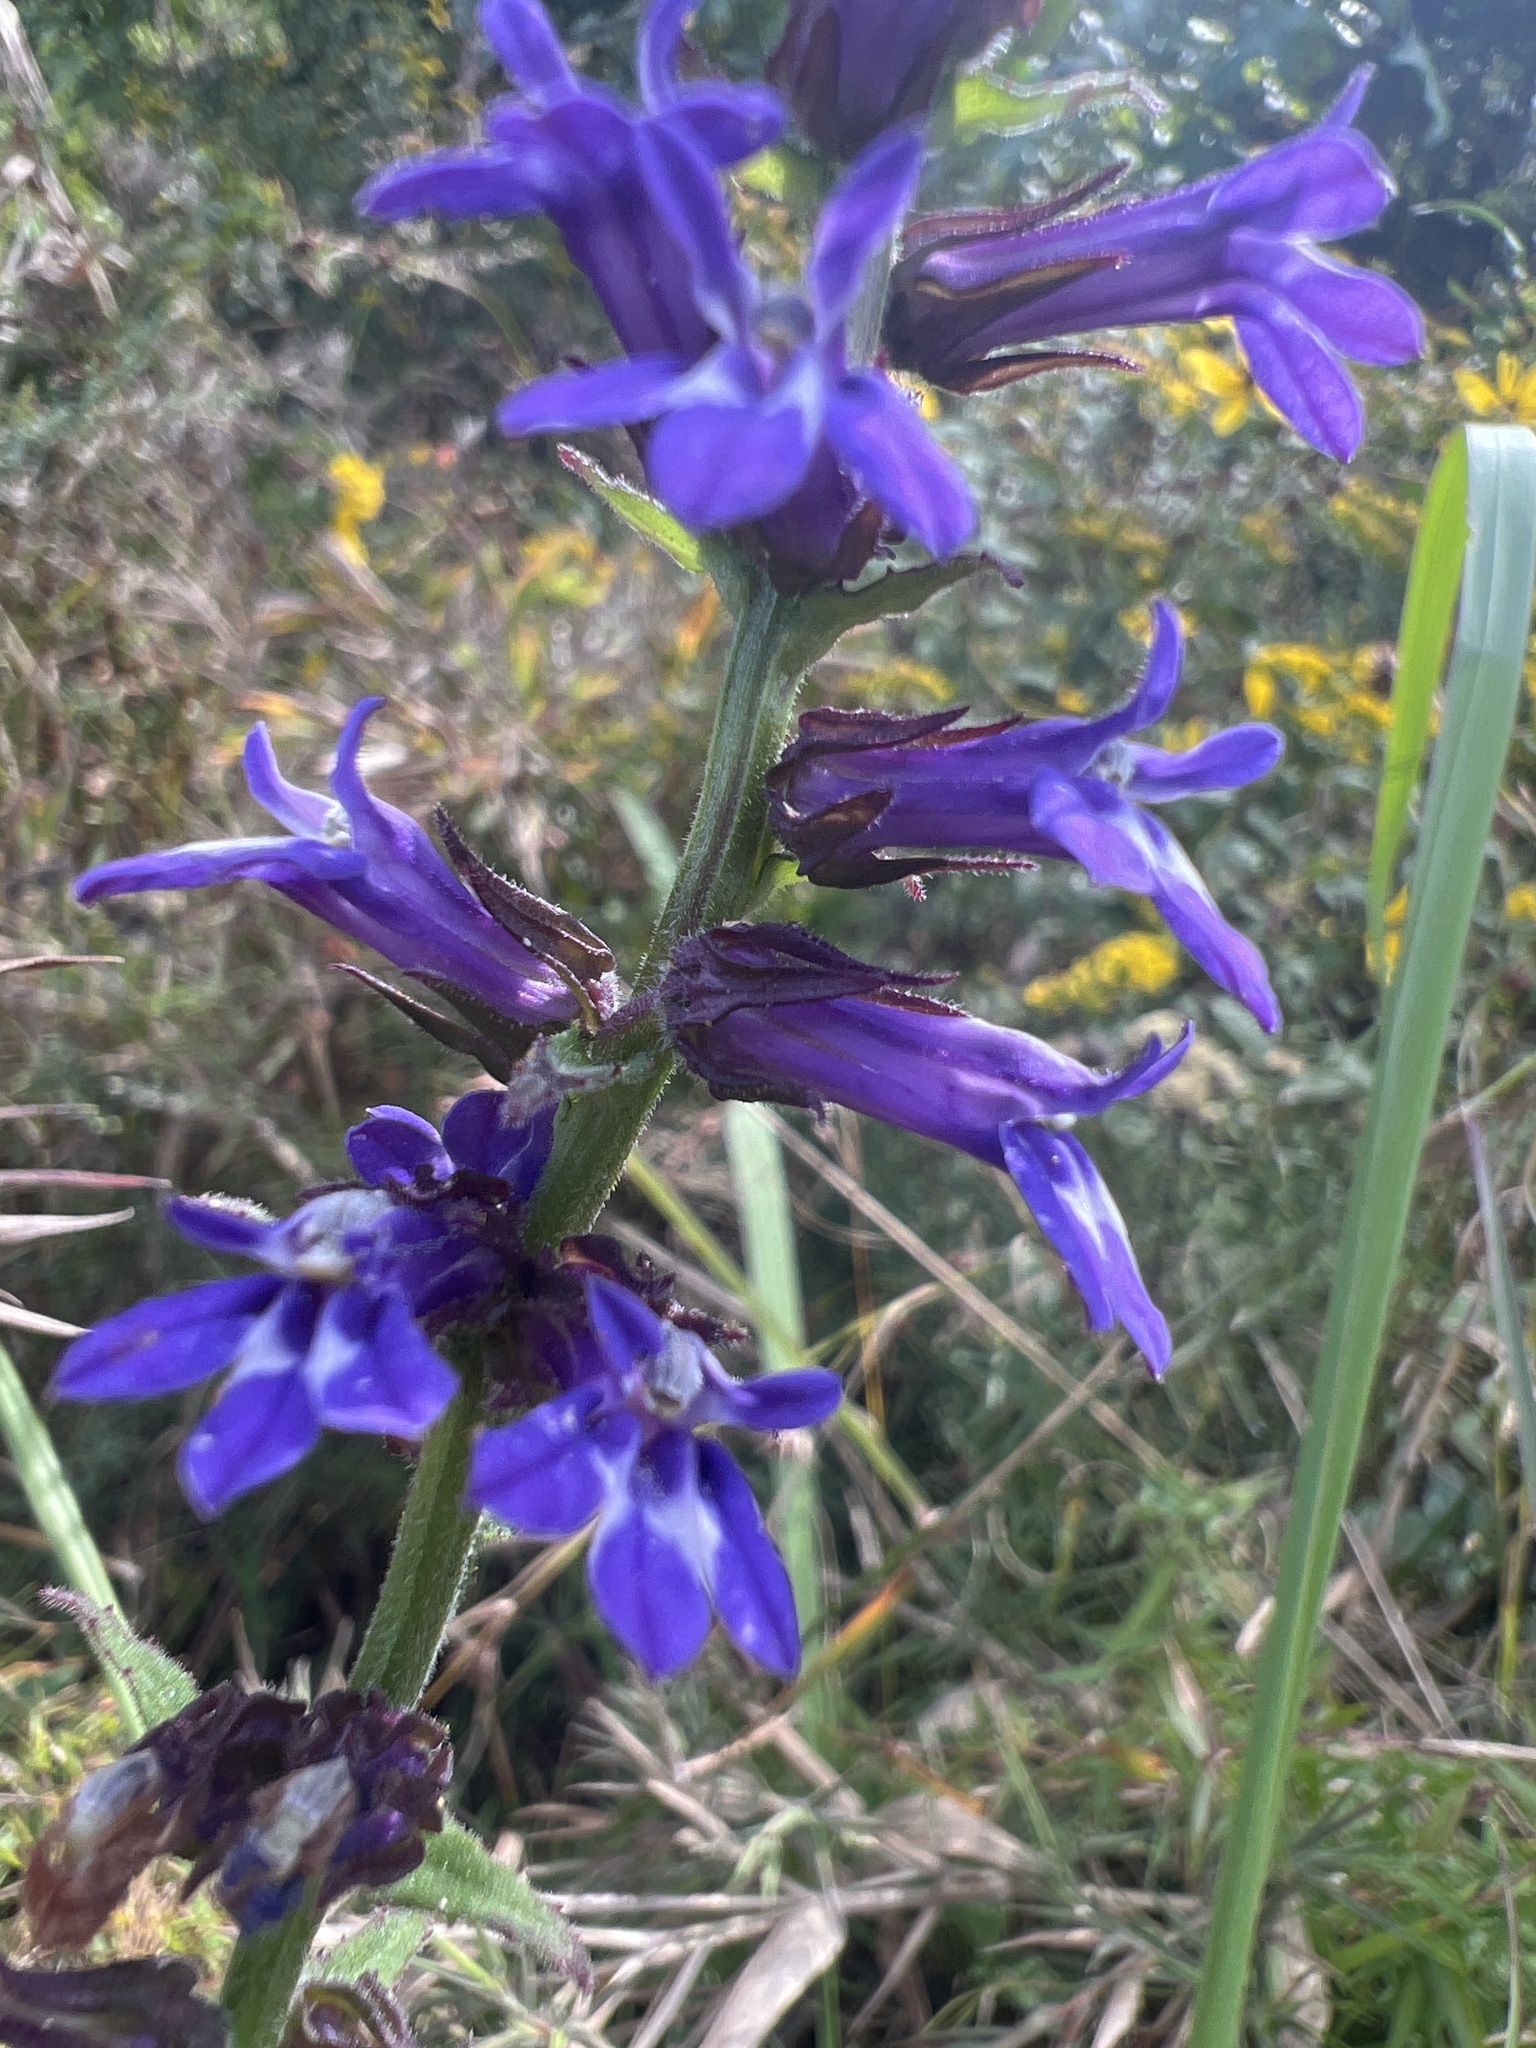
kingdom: Plantae
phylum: Tracheophyta
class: Magnoliopsida
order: Asterales
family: Campanulaceae
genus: Lobelia
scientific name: Lobelia puberula
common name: Purple dewdrop
